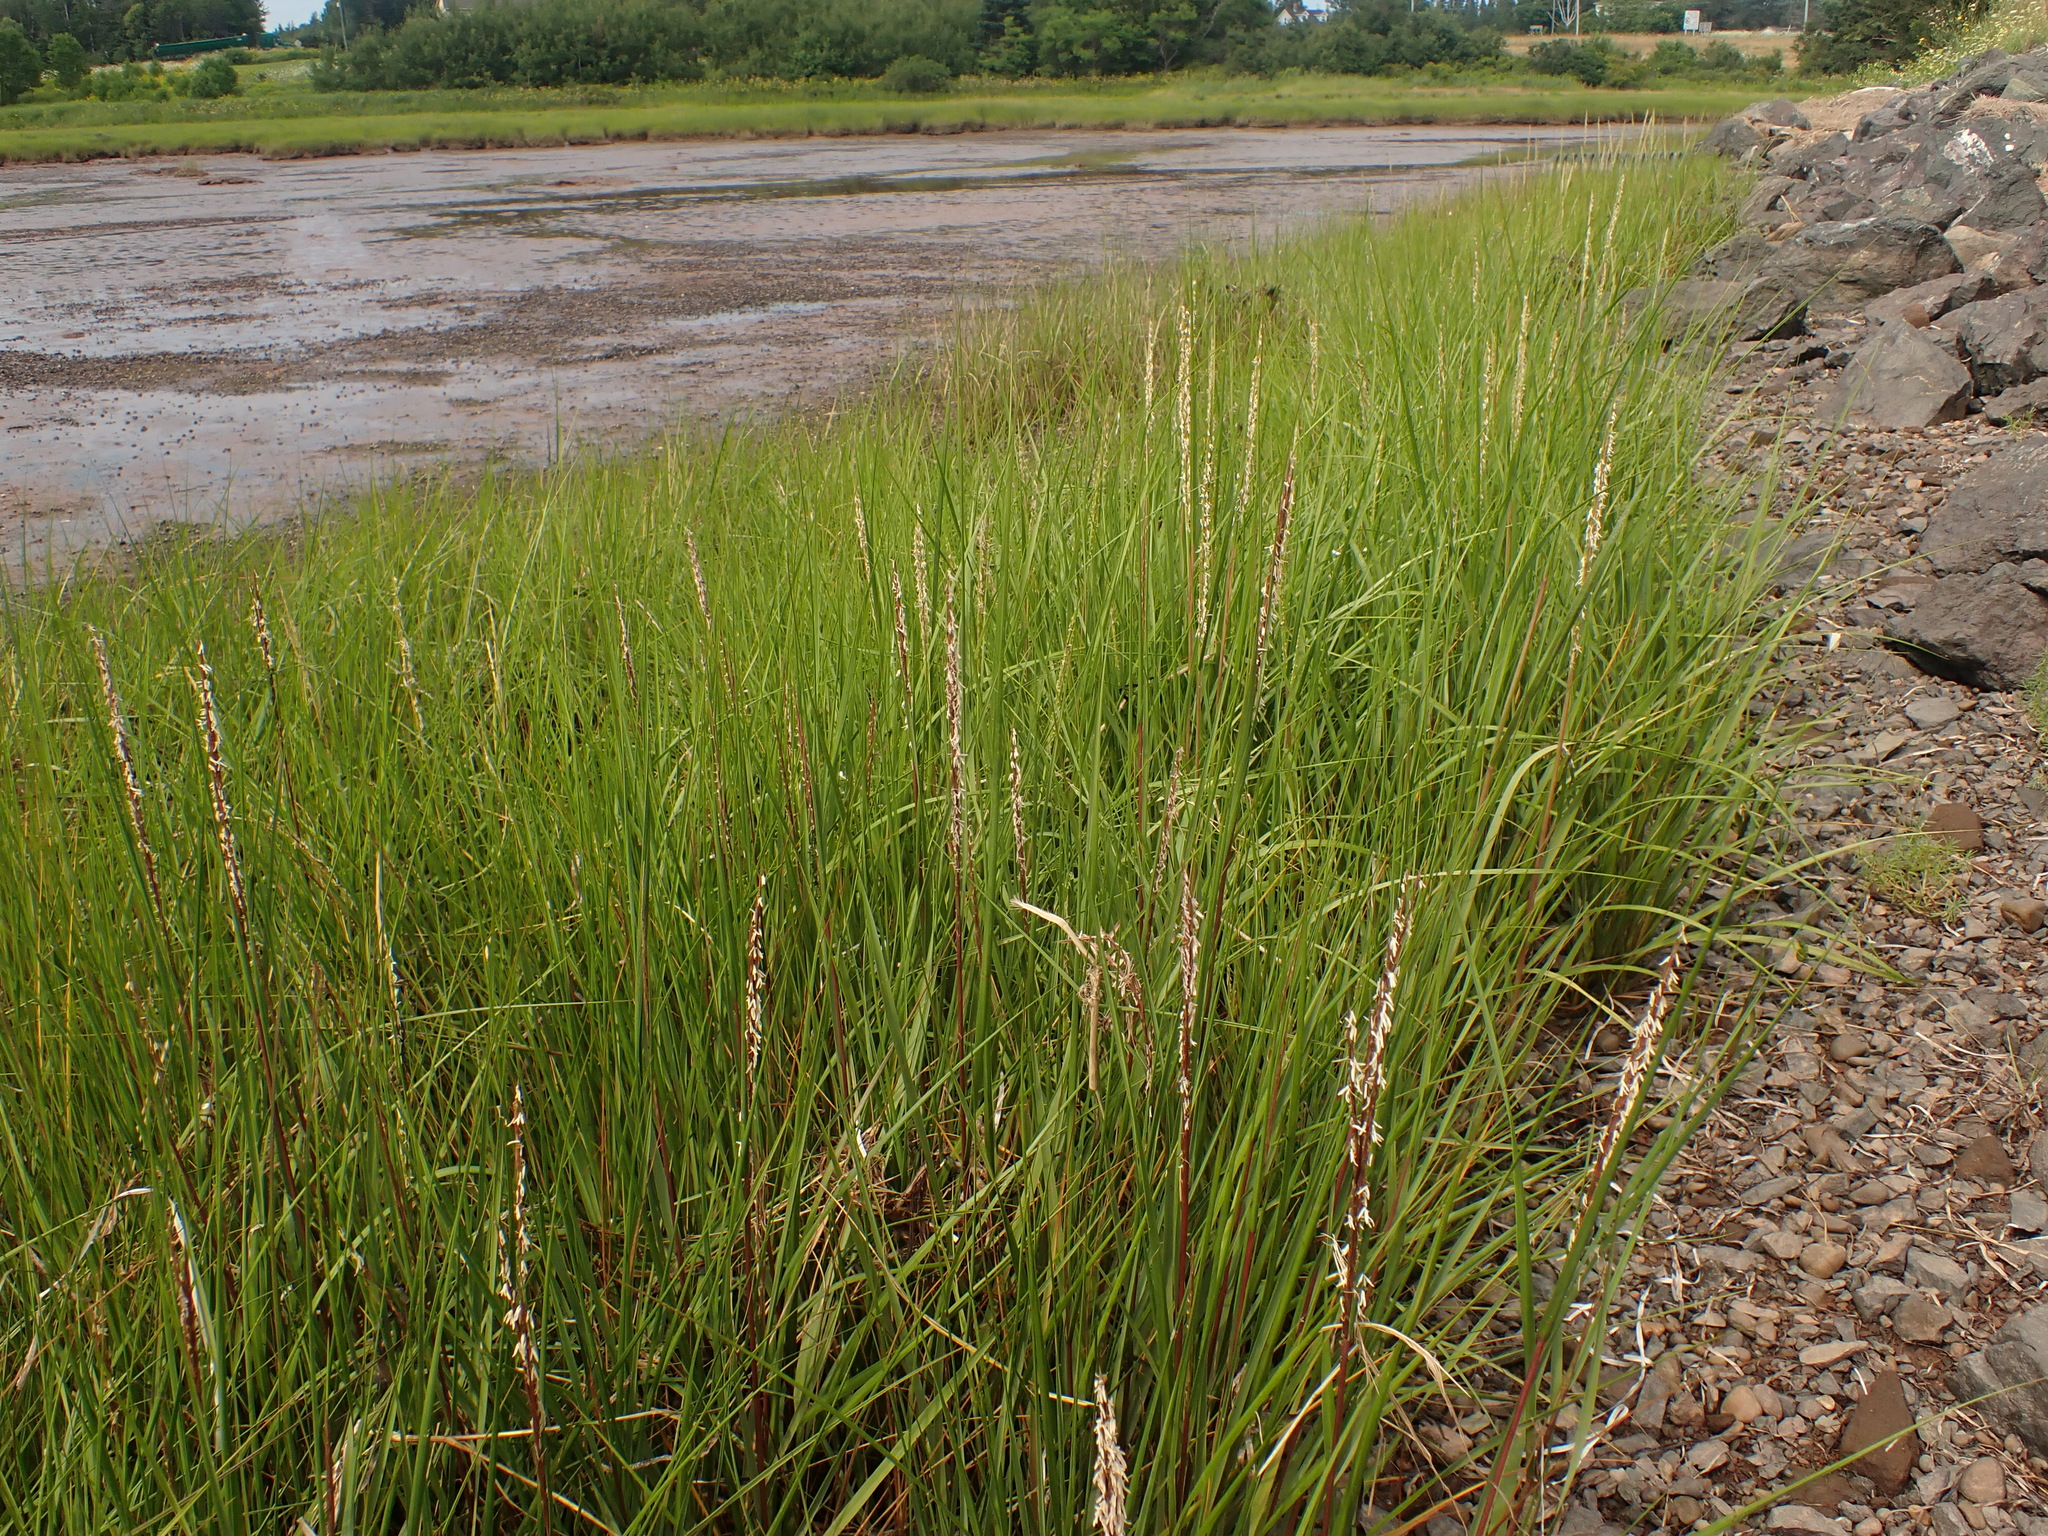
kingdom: Plantae
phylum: Tracheophyta
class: Liliopsida
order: Poales
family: Poaceae
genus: Sporobolus
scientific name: Sporobolus alterniflorus
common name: Atlantic cordgrass
